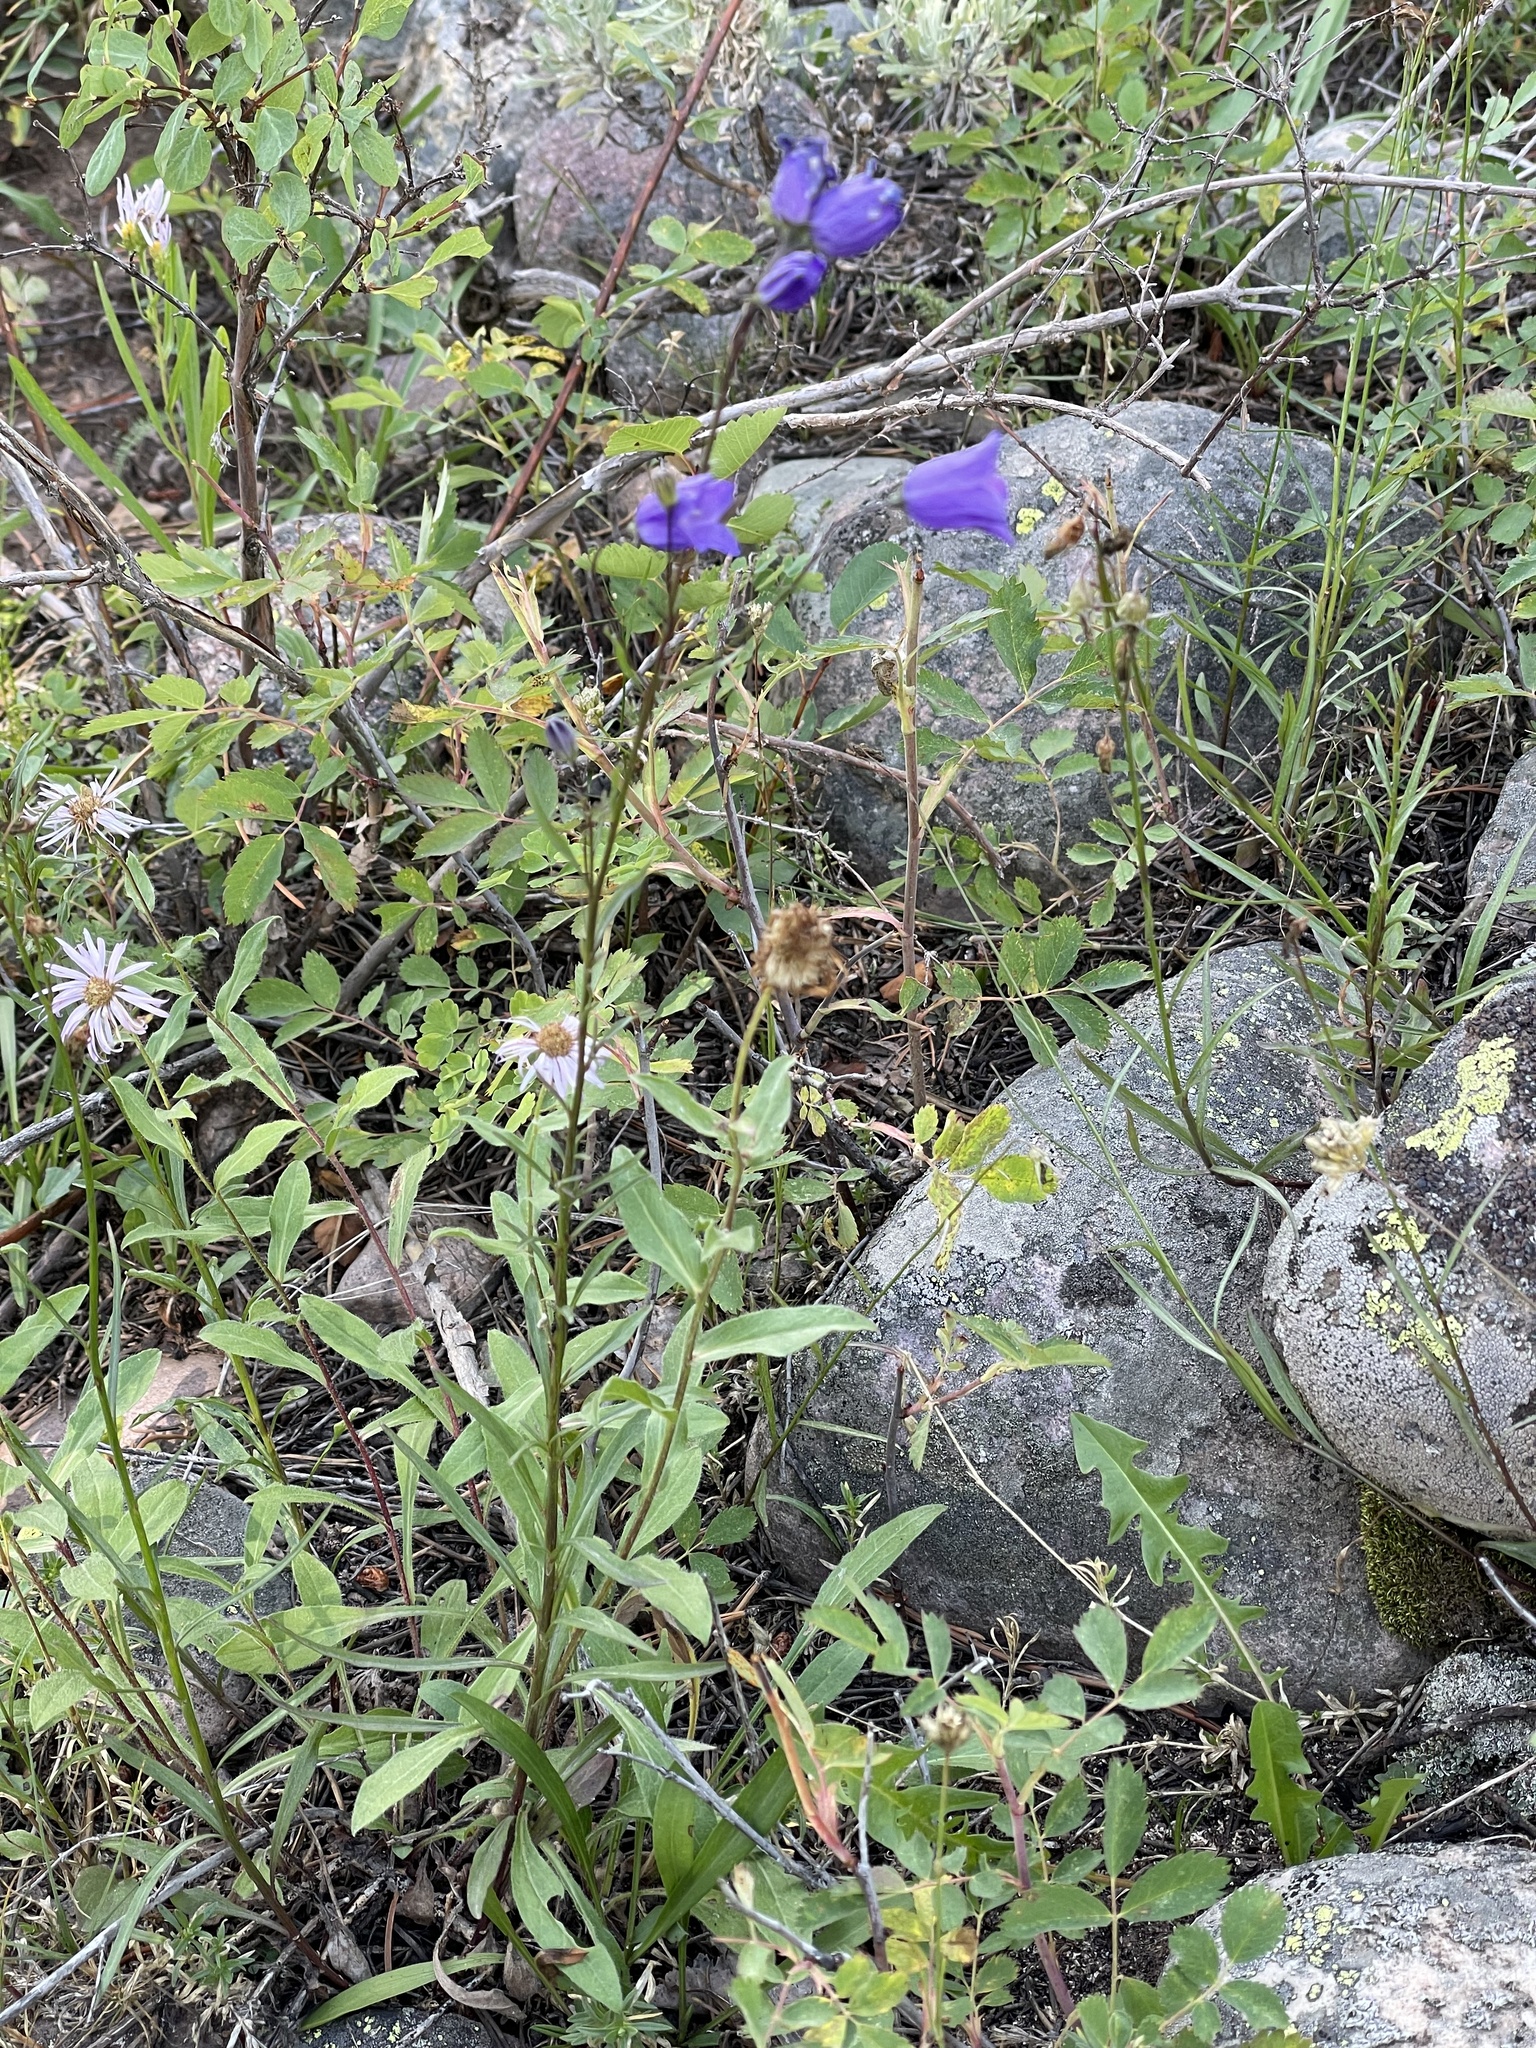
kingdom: Plantae
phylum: Tracheophyta
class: Magnoliopsida
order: Asterales
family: Campanulaceae
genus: Campanula
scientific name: Campanula petiolata
